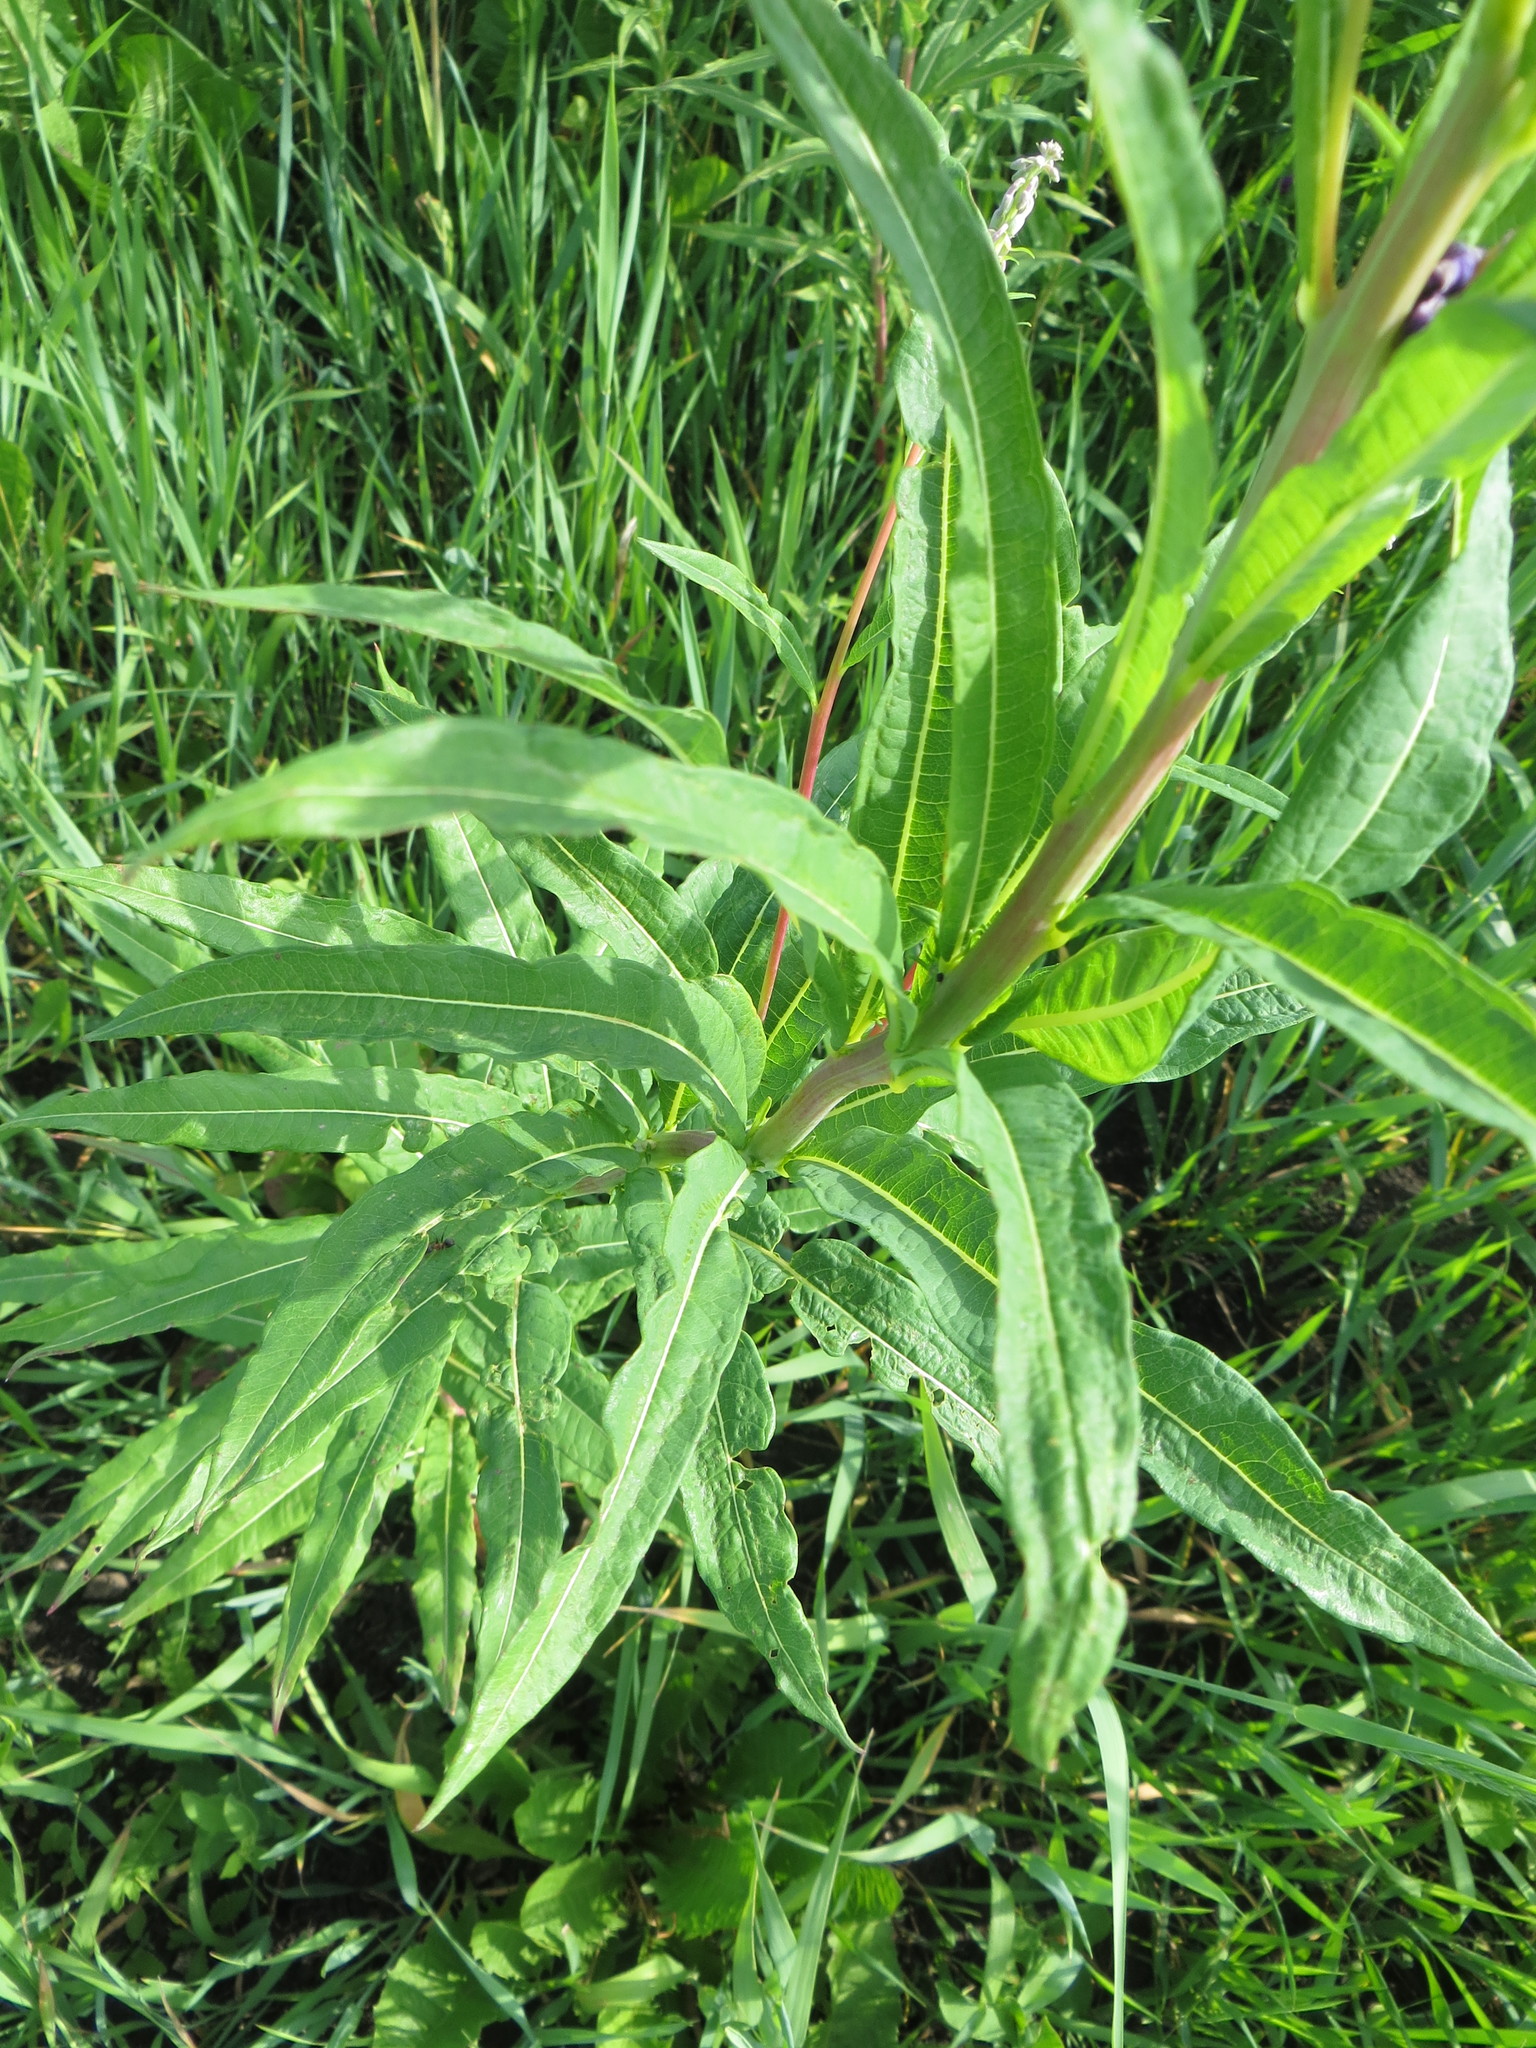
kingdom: Plantae
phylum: Tracheophyta
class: Magnoliopsida
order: Myrtales
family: Onagraceae
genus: Chamaenerion
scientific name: Chamaenerion angustifolium
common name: Fireweed
